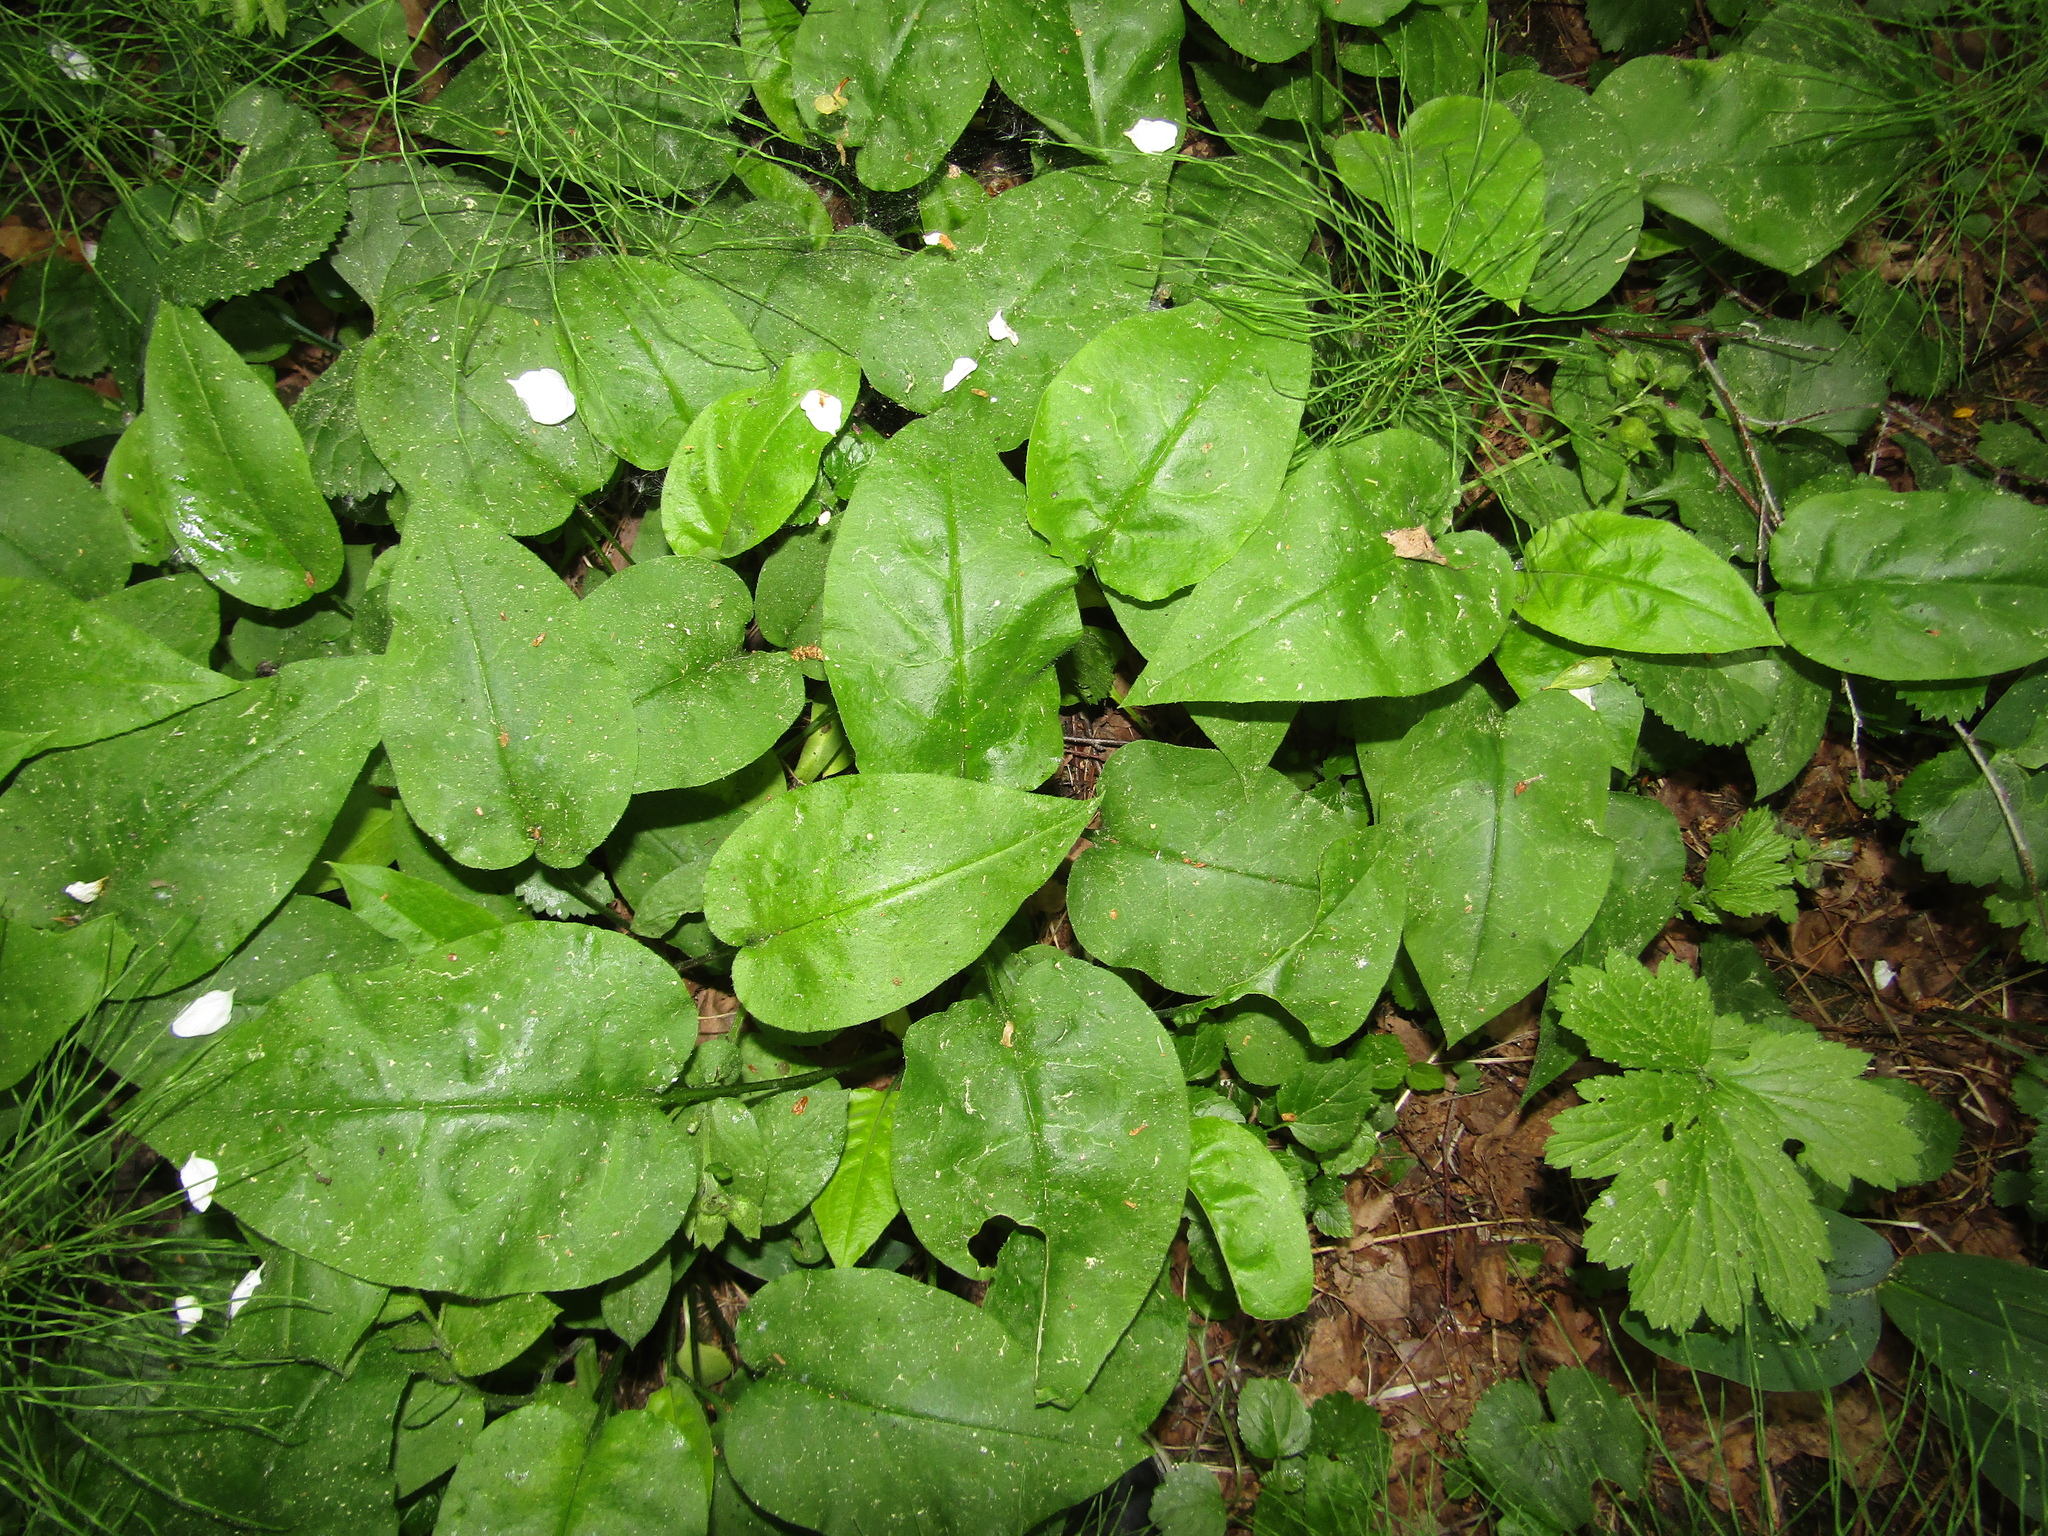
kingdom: Plantae
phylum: Tracheophyta
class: Magnoliopsida
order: Boraginales
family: Boraginaceae
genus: Pulmonaria
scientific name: Pulmonaria obscura
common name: Suffolk lungwort
